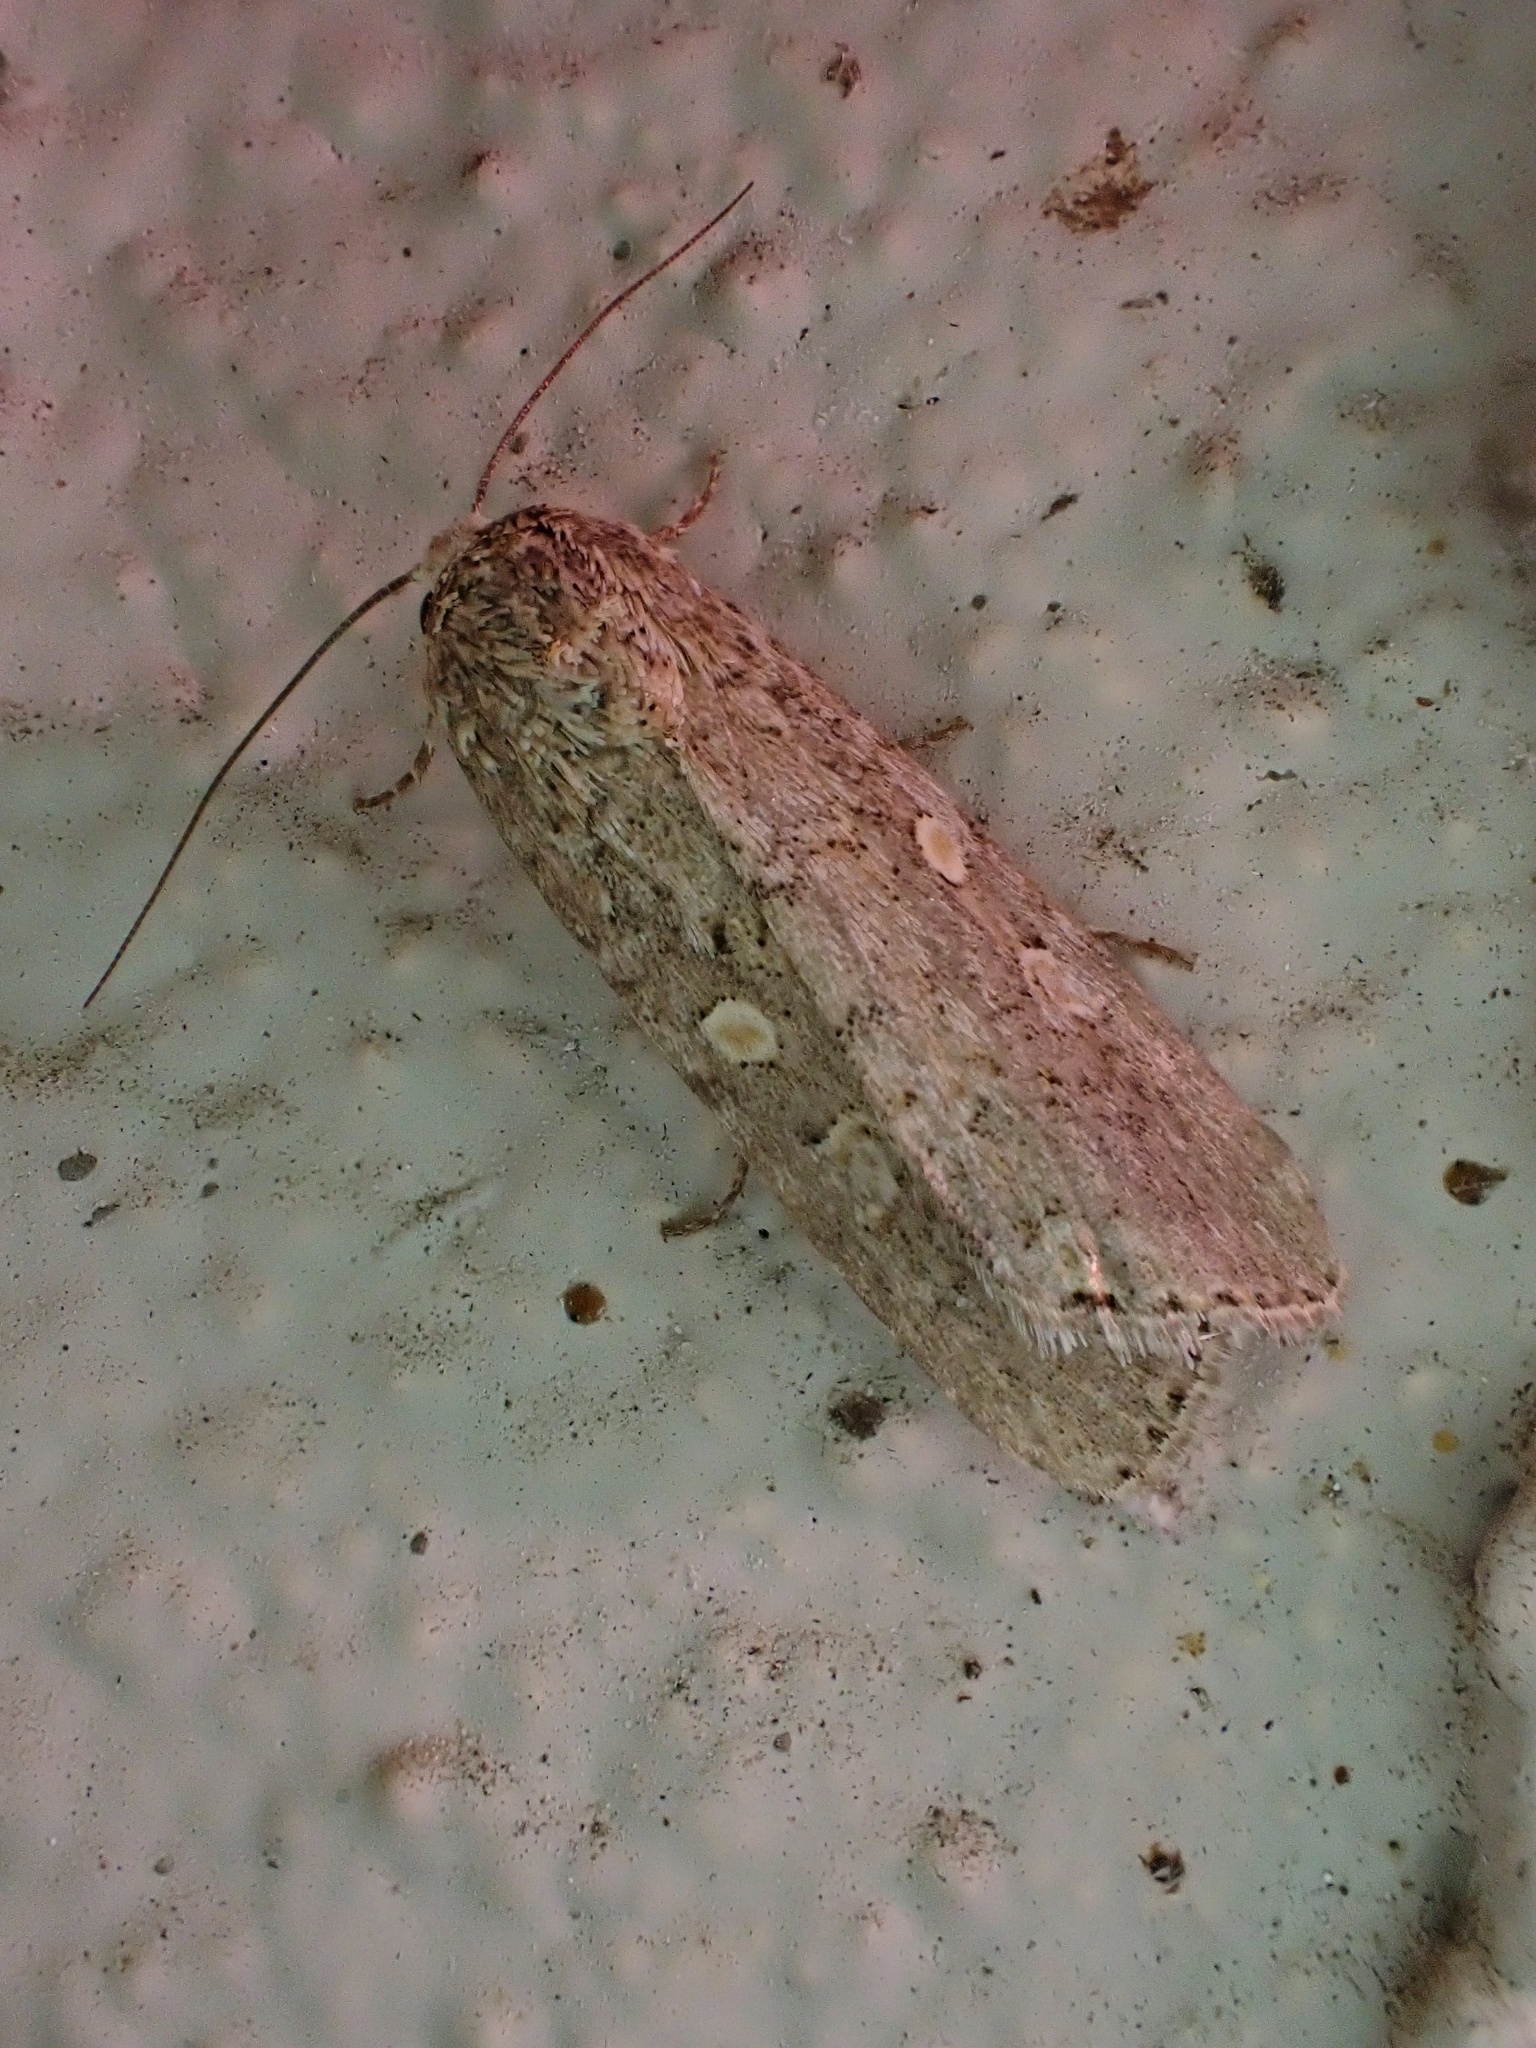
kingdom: Animalia
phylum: Arthropoda
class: Insecta
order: Lepidoptera
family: Noctuidae
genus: Spodoptera
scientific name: Spodoptera exigua
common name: Beet armyworm
